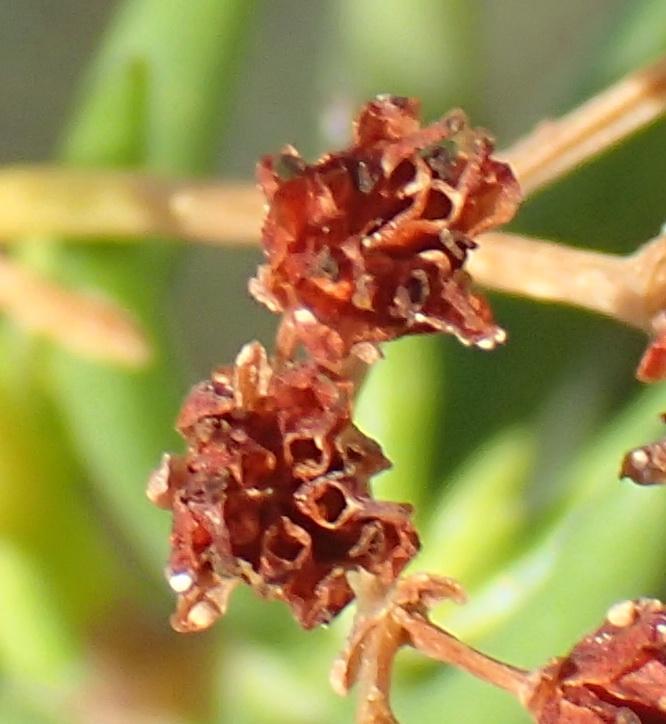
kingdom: Plantae
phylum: Tracheophyta
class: Magnoliopsida
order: Saxifragales
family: Crassulaceae
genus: Crassula
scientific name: Crassula tetragona
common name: Pygmyweed
